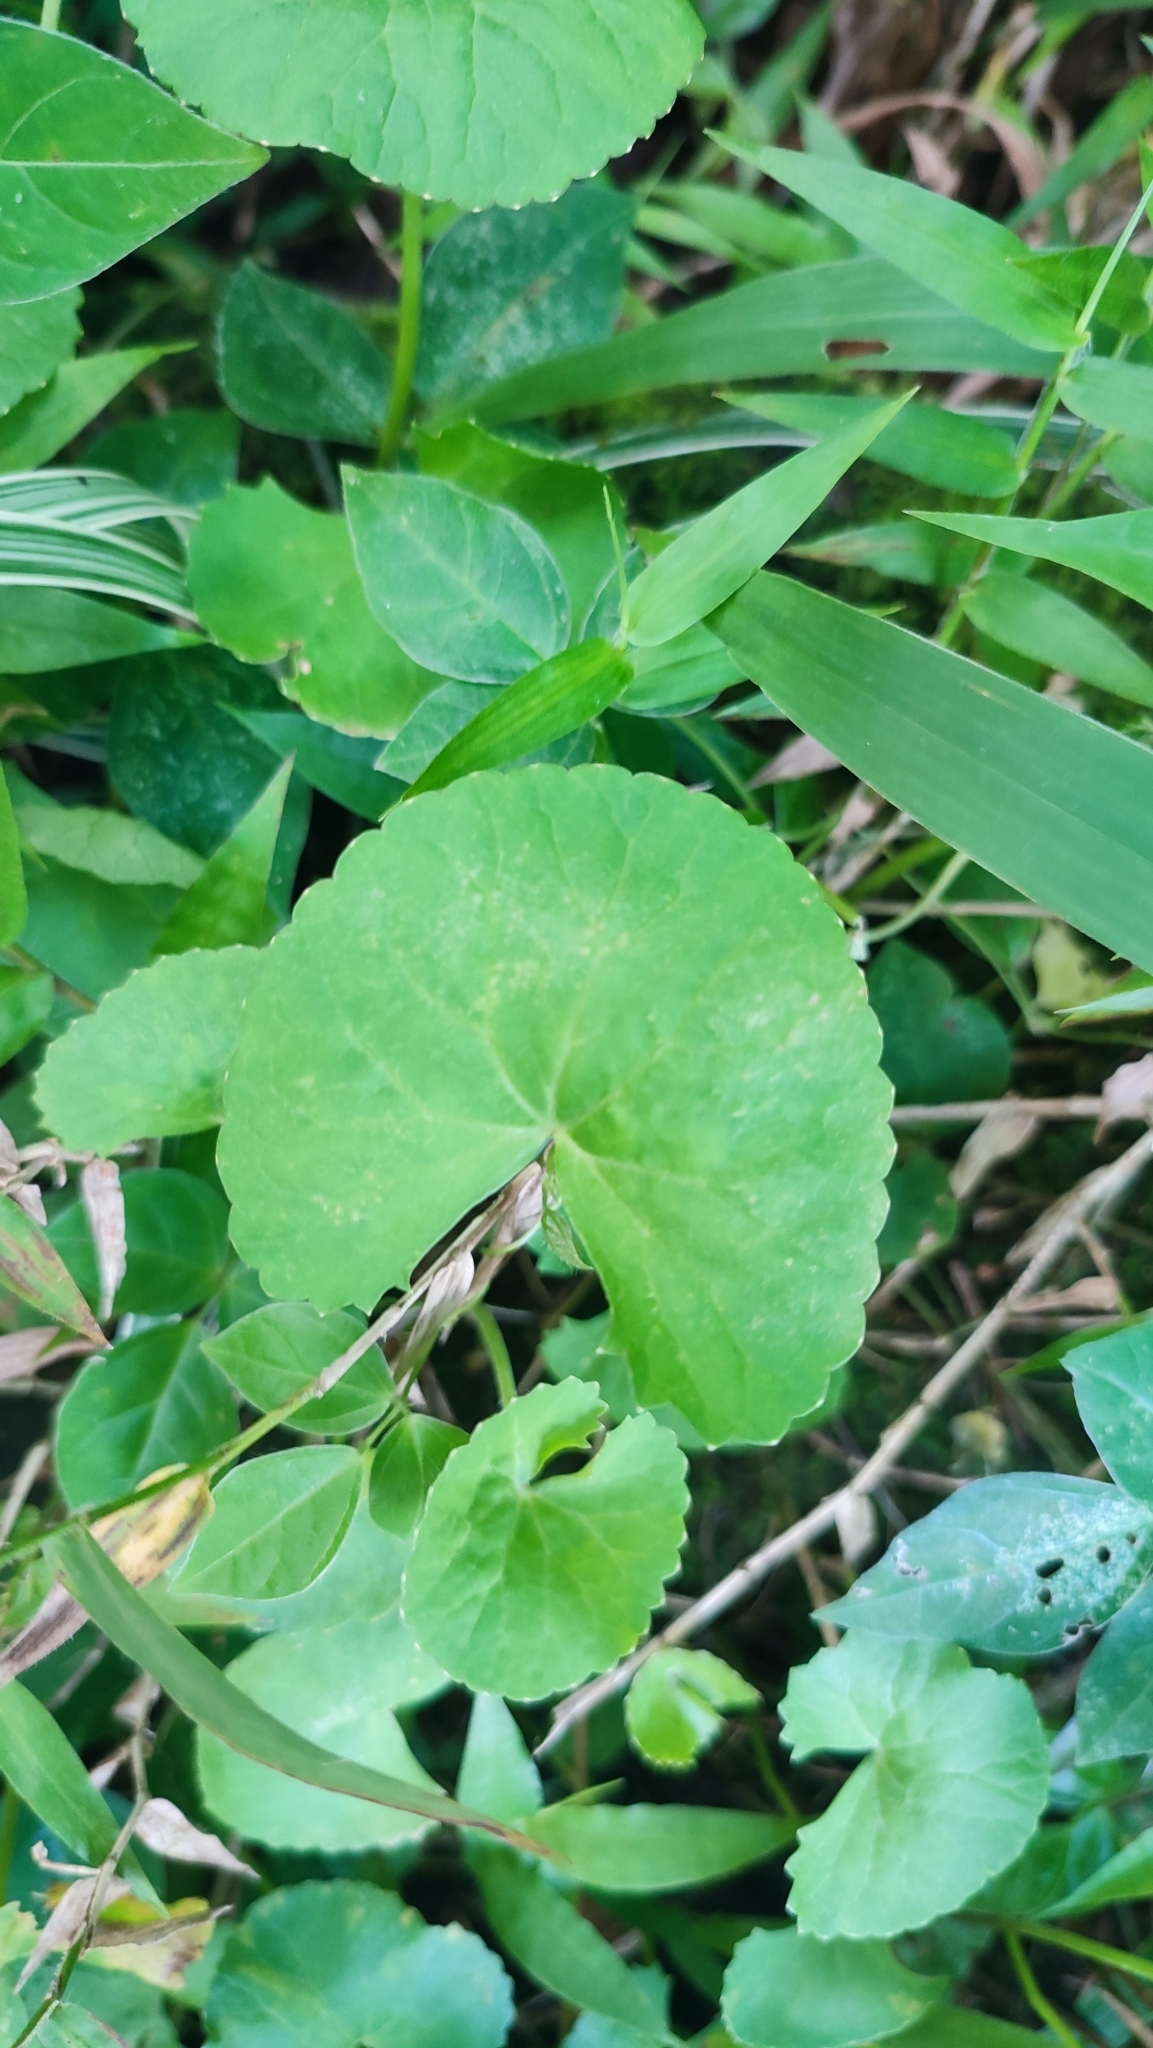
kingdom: Plantae
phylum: Tracheophyta
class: Magnoliopsida
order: Apiales
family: Apiaceae
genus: Centella
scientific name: Centella asiatica
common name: Spadeleaf
